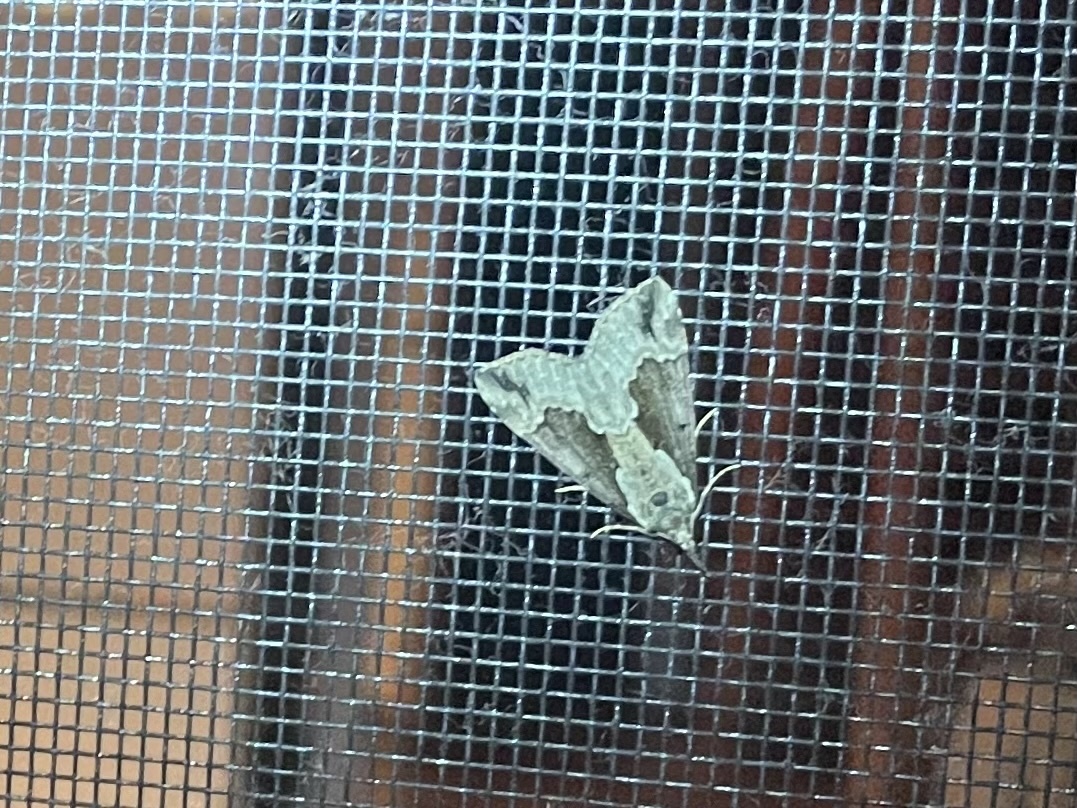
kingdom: Animalia
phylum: Arthropoda
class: Insecta
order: Lepidoptera
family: Erebidae
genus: Hypena
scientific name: Hypena baltimoralis
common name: Baltimore snout
